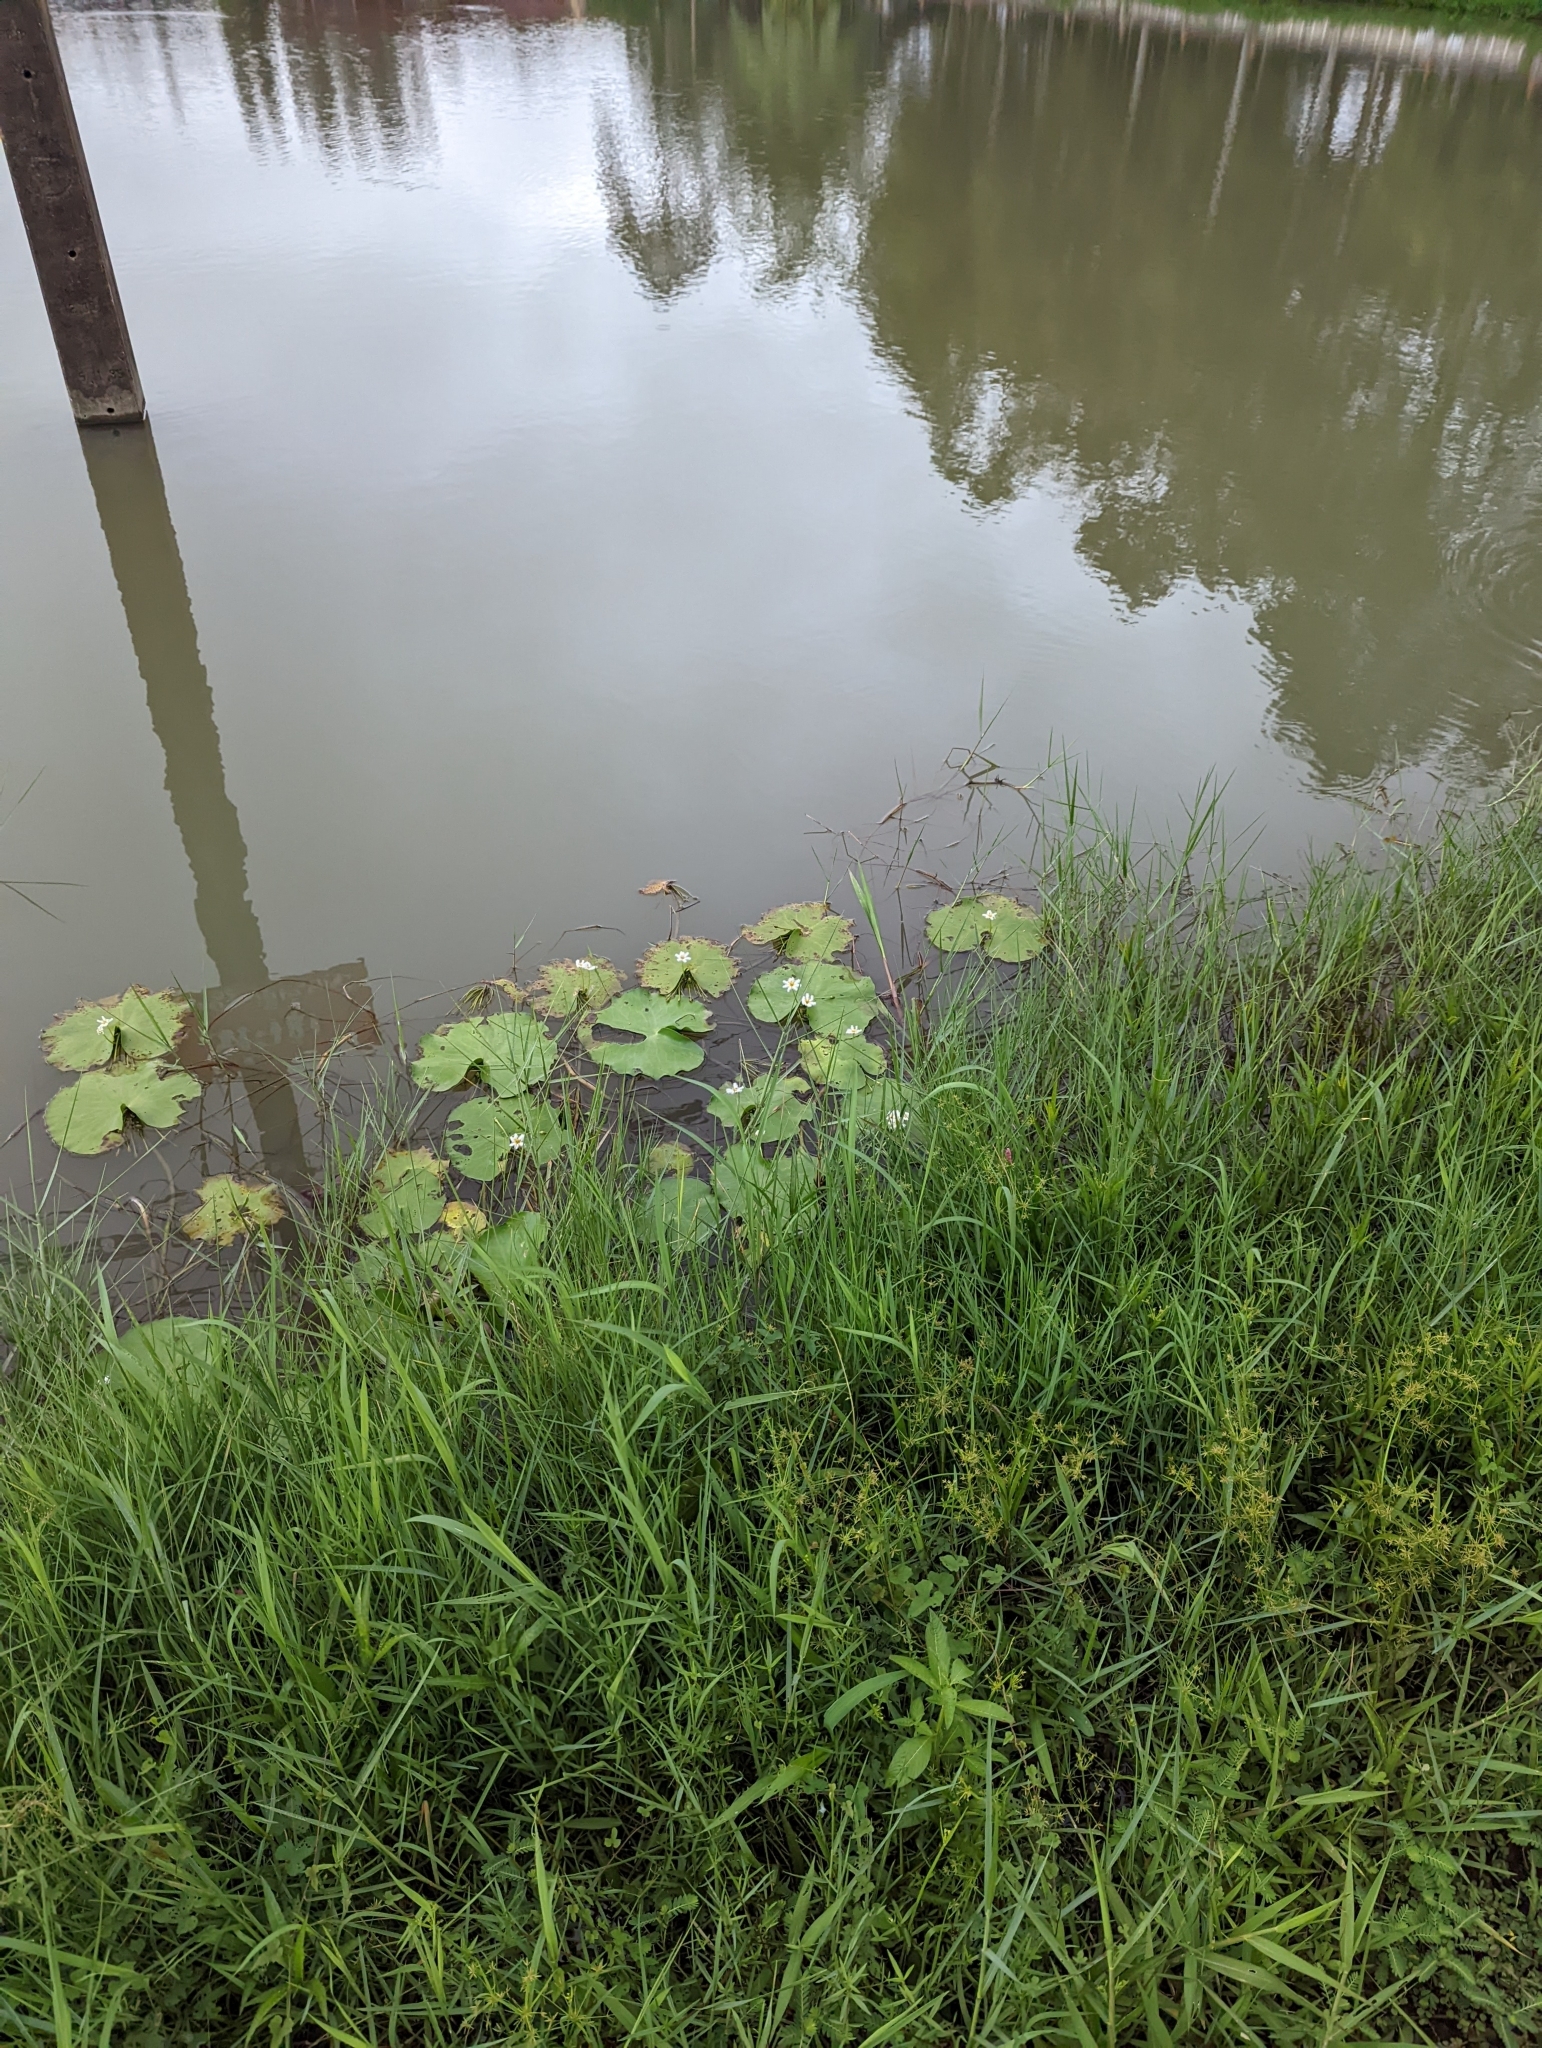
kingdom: Plantae
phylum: Tracheophyta
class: Magnoliopsida
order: Asterales
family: Menyanthaceae
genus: Nymphoides
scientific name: Nymphoides indica
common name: Water-snowflake
